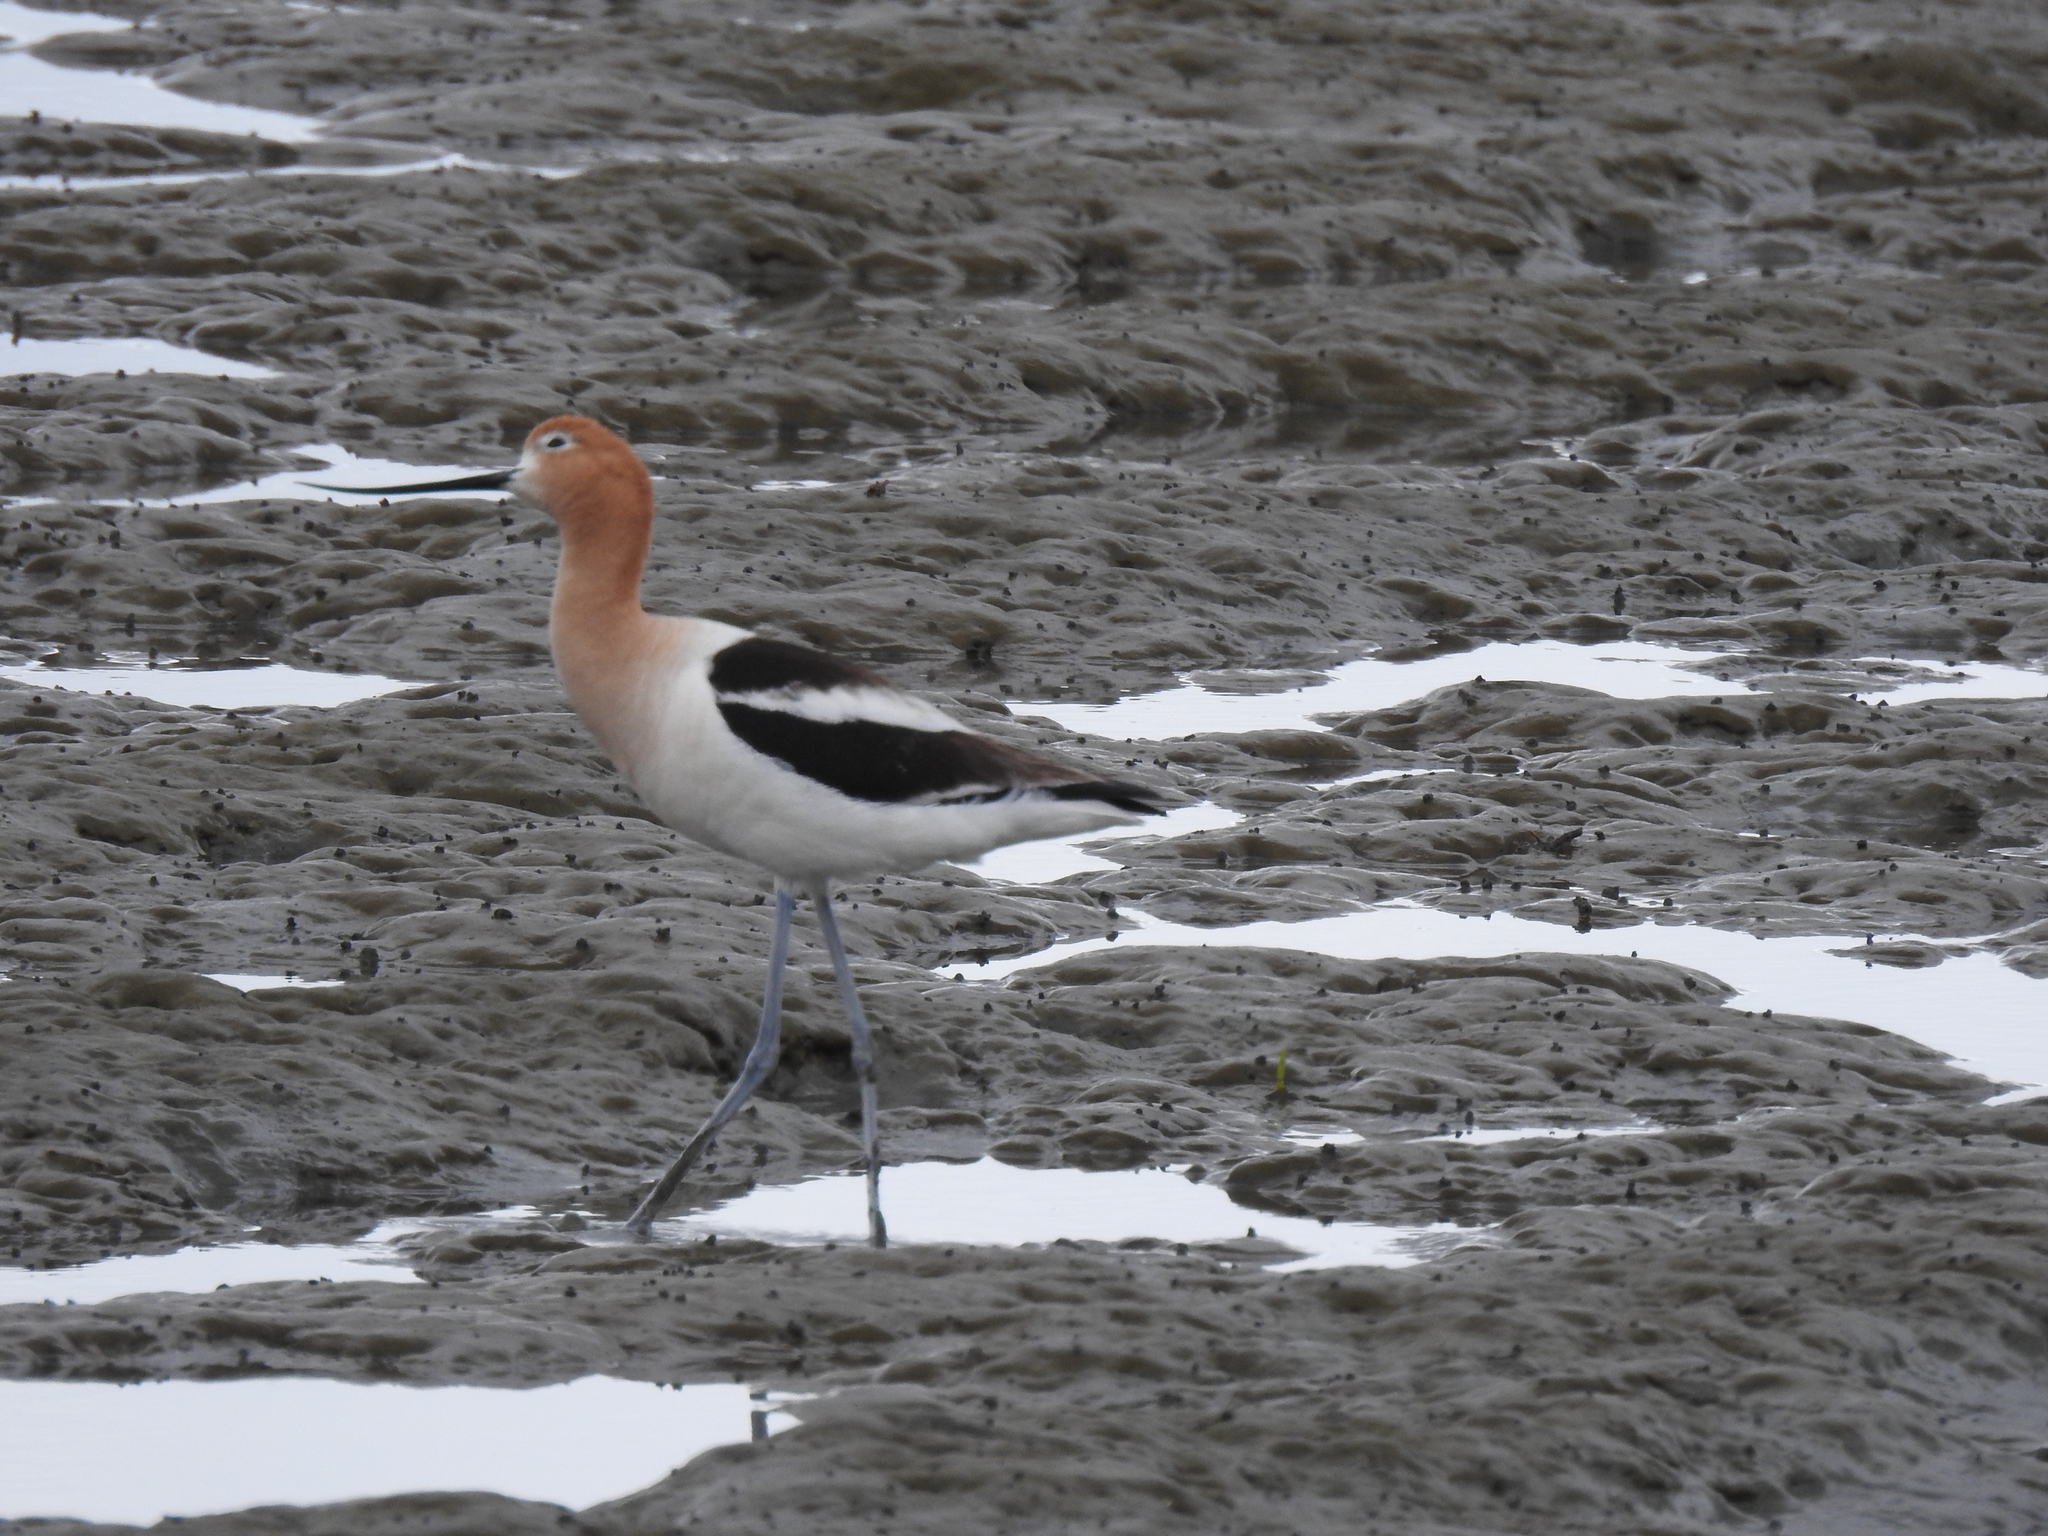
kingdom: Animalia
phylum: Chordata
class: Aves
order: Charadriiformes
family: Recurvirostridae
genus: Recurvirostra
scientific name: Recurvirostra americana
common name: American avocet
